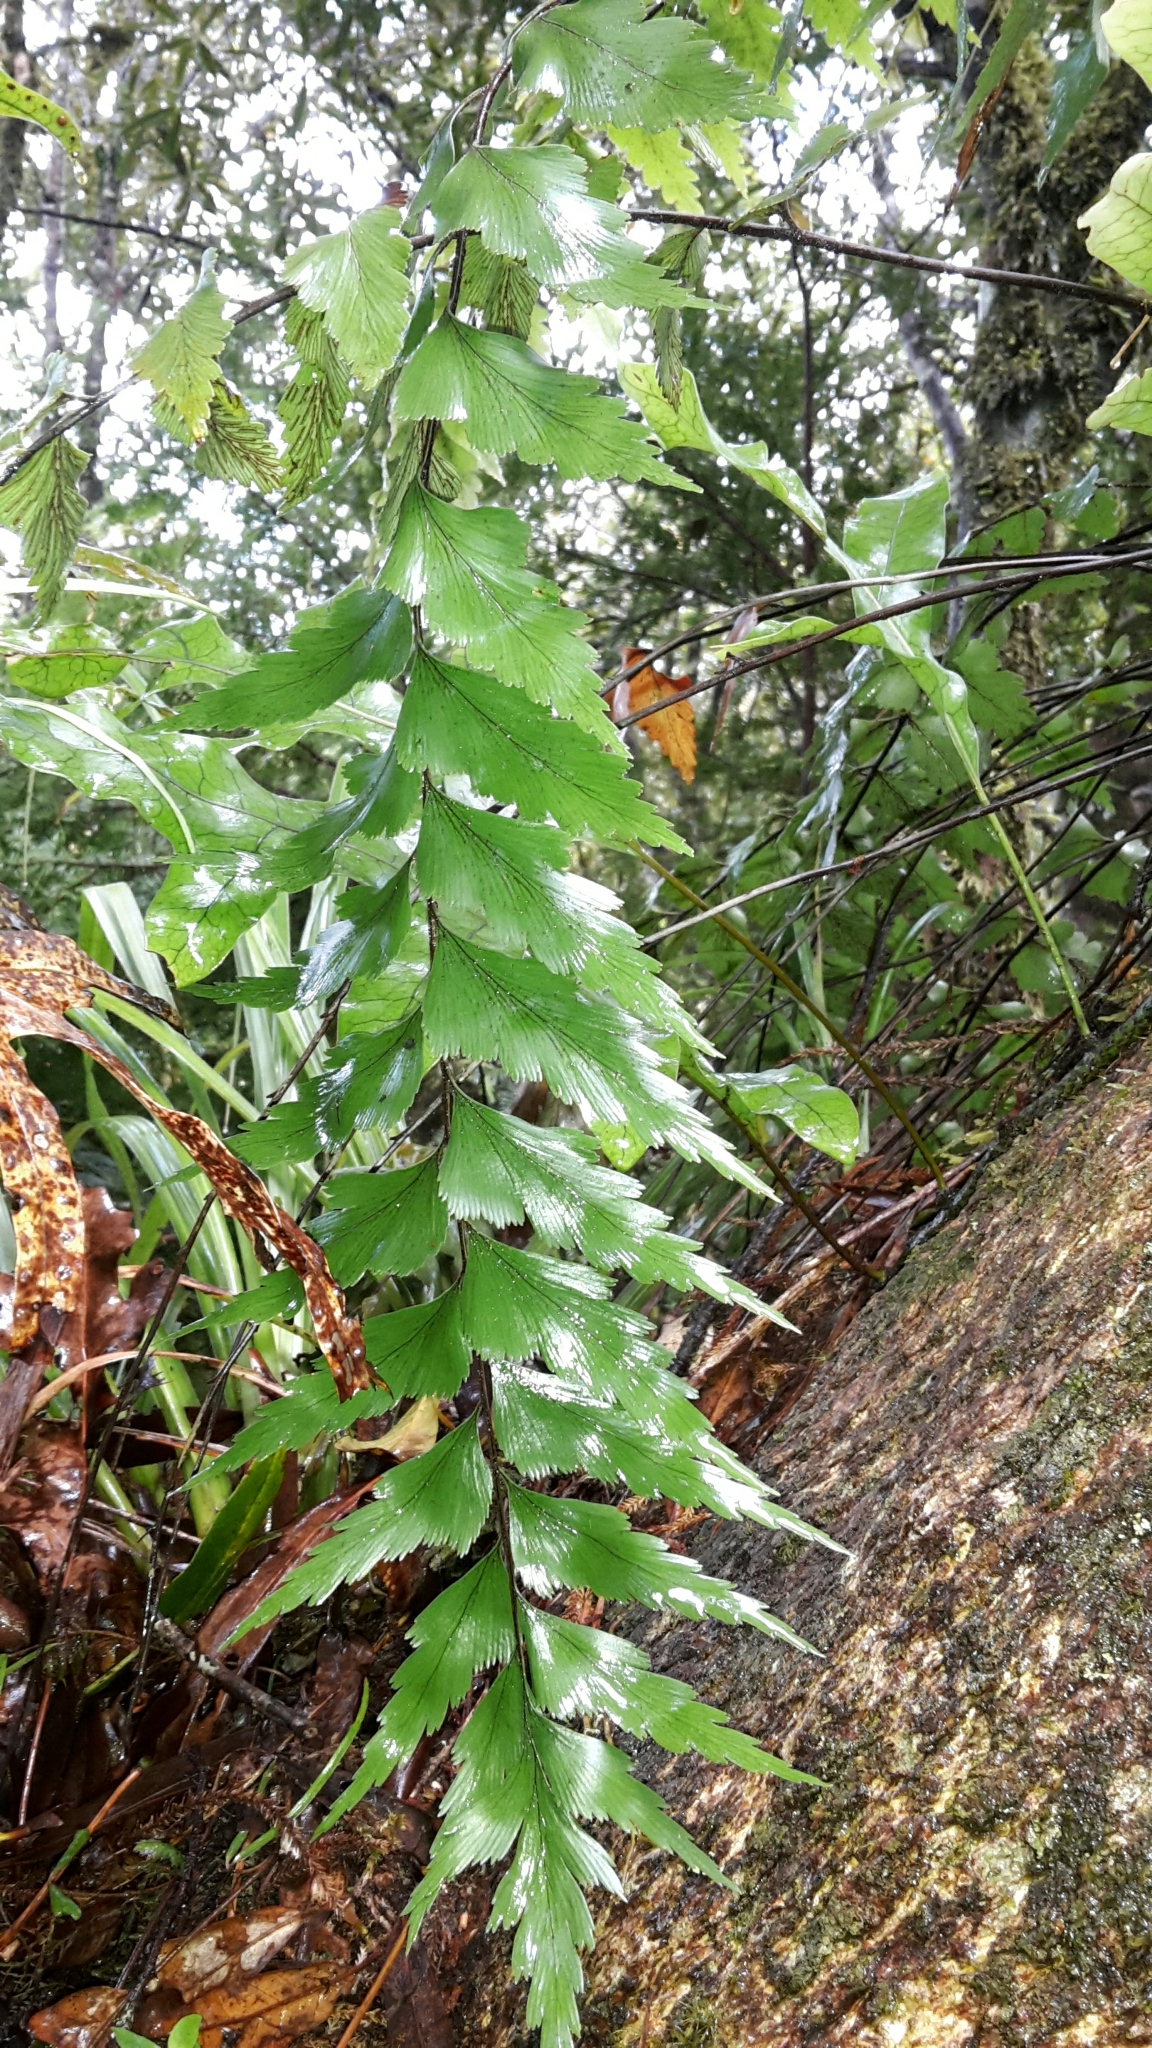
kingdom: Plantae
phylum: Tracheophyta
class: Polypodiopsida
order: Polypodiales
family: Aspleniaceae
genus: Asplenium
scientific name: Asplenium polyodon
